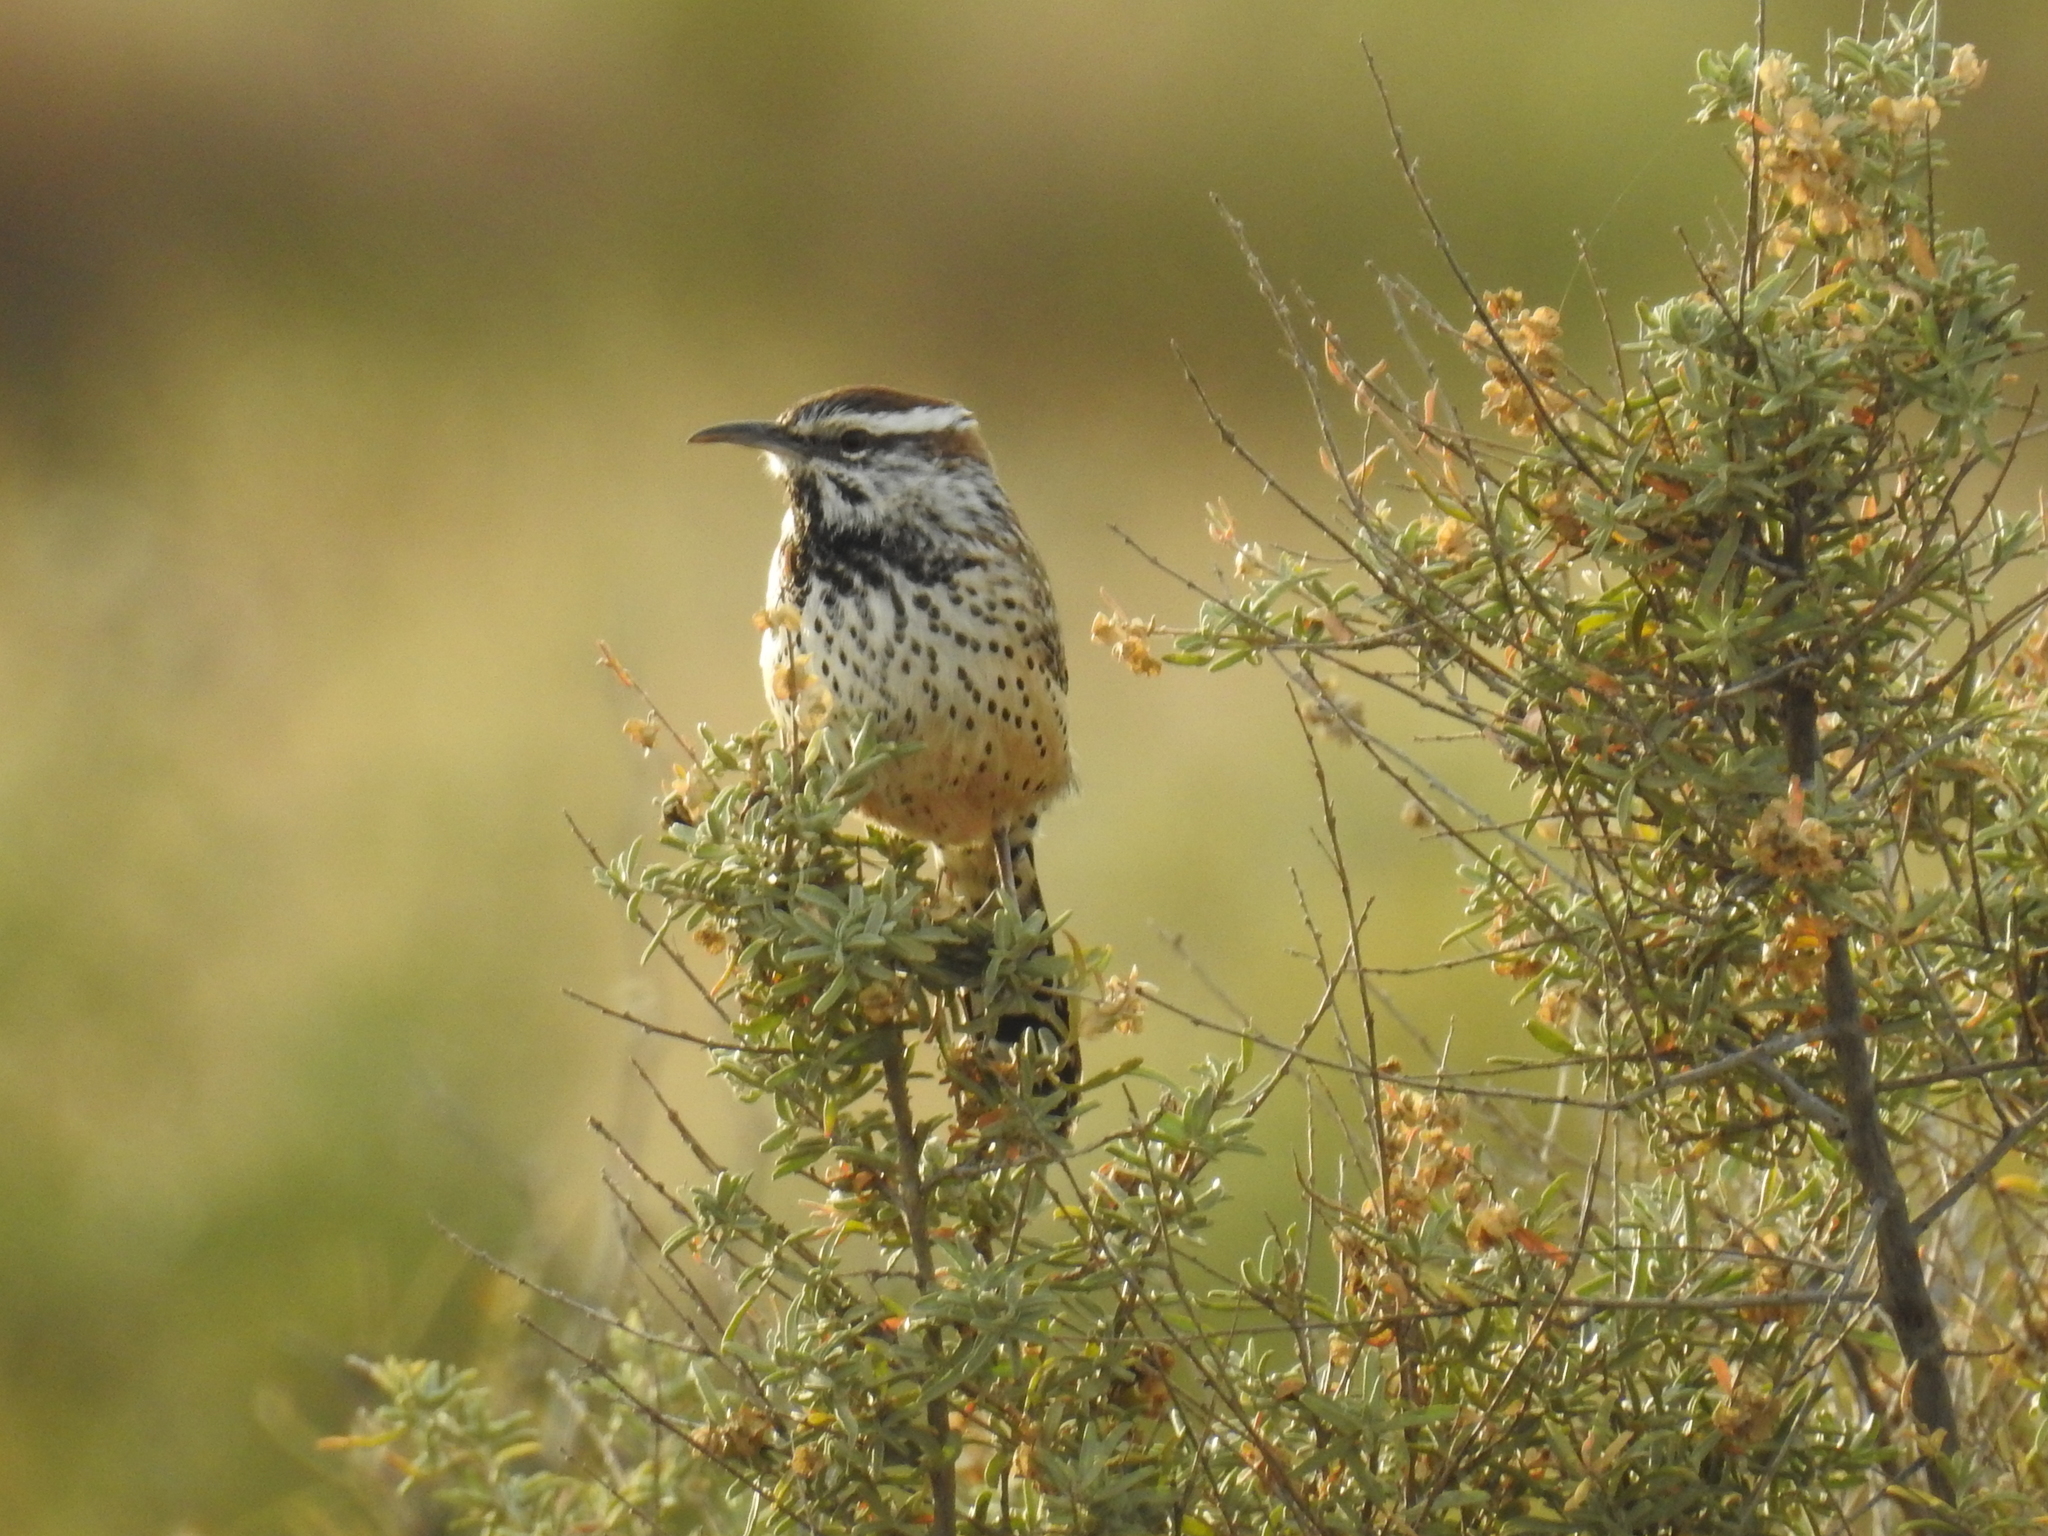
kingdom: Animalia
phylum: Chordata
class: Aves
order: Passeriformes
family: Troglodytidae
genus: Campylorhynchus
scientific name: Campylorhynchus brunneicapillus
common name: Cactus wren
